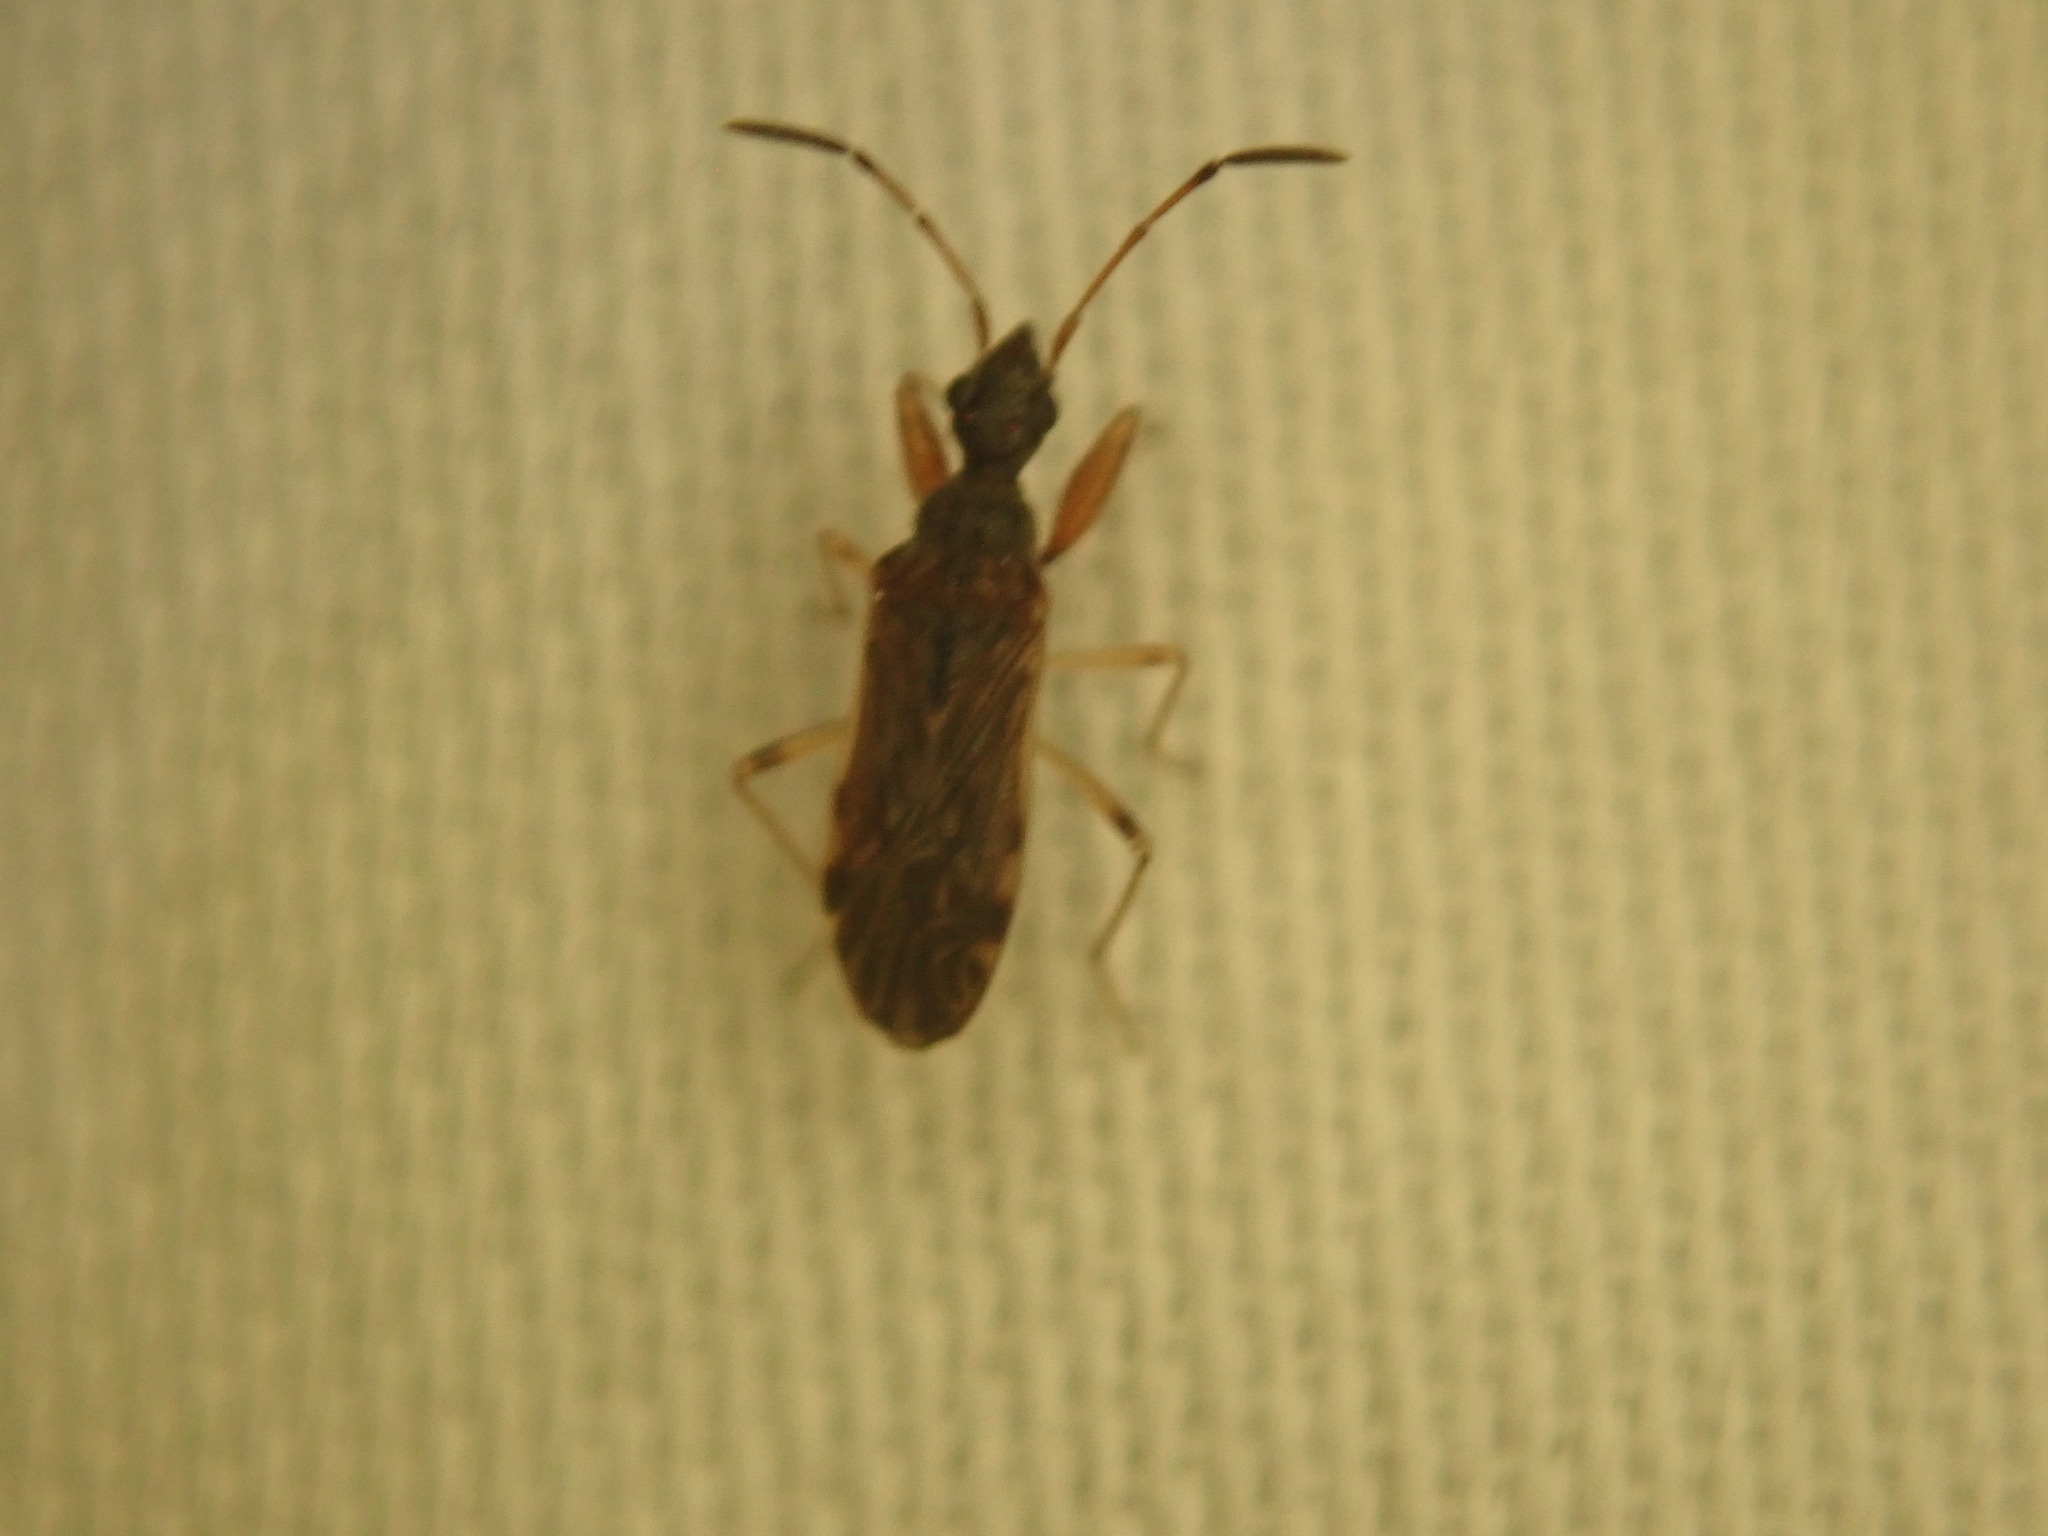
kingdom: Animalia
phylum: Arthropoda
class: Insecta
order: Hemiptera
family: Rhyparochromidae
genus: Heraeus
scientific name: Heraeus plebejus
